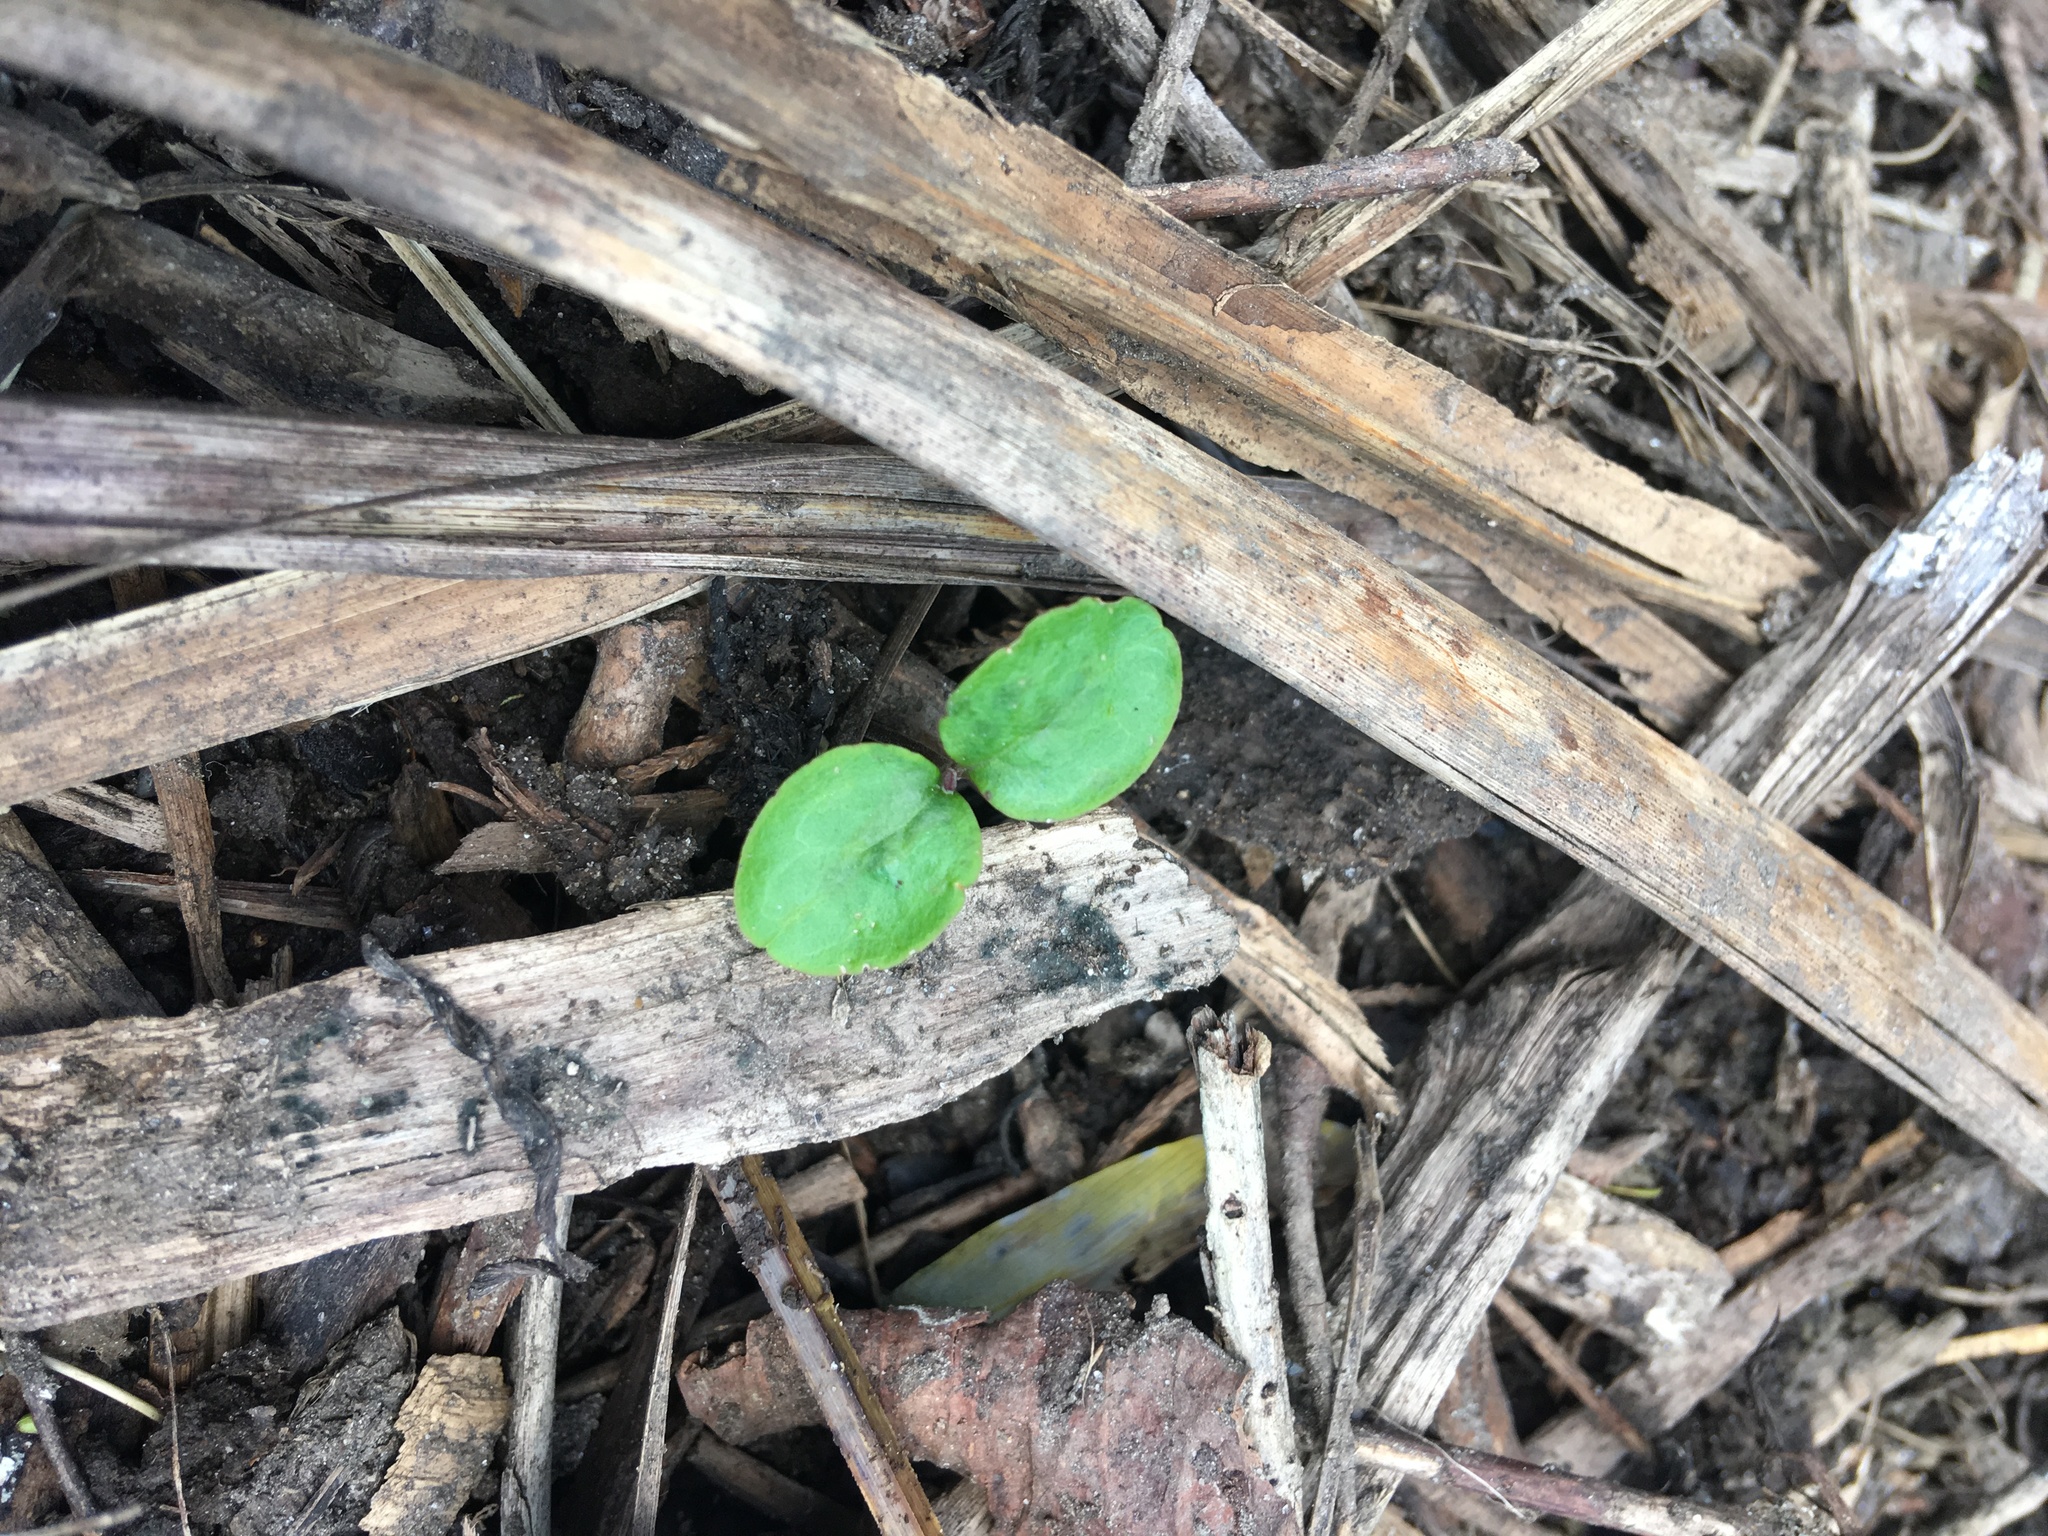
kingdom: Plantae
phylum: Tracheophyta
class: Magnoliopsida
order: Lamiales
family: Oleaceae
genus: Ligustrum
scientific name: Ligustrum sinense
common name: Chinese privet
